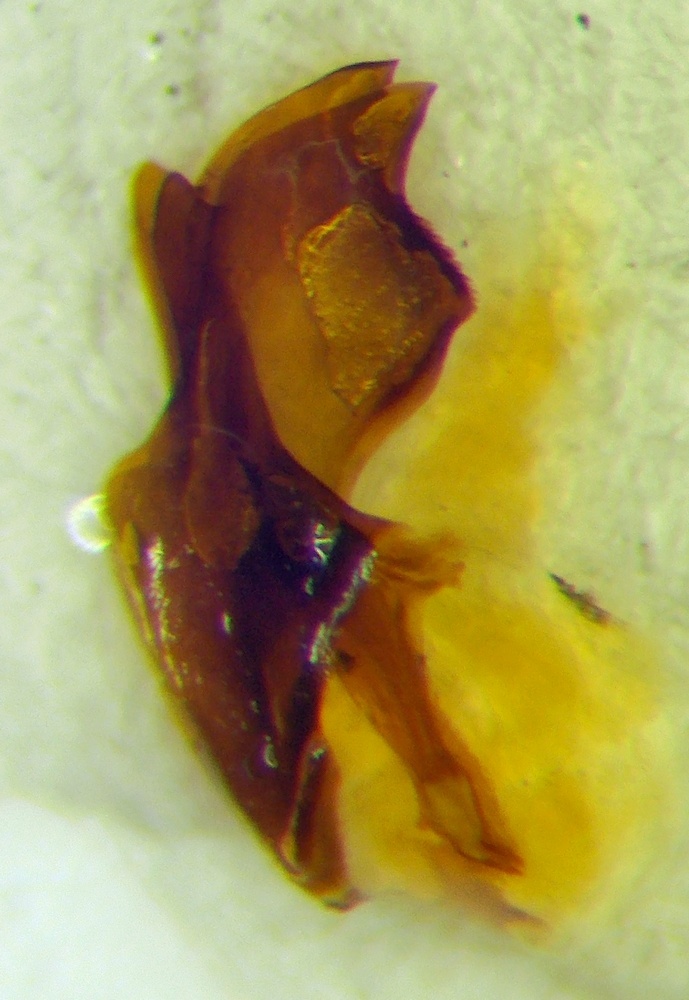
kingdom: Animalia
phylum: Arthropoda
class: Insecta
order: Hymenoptera
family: Formicidae
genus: Cataglyphis
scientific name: Cataglyphis aphrodite
